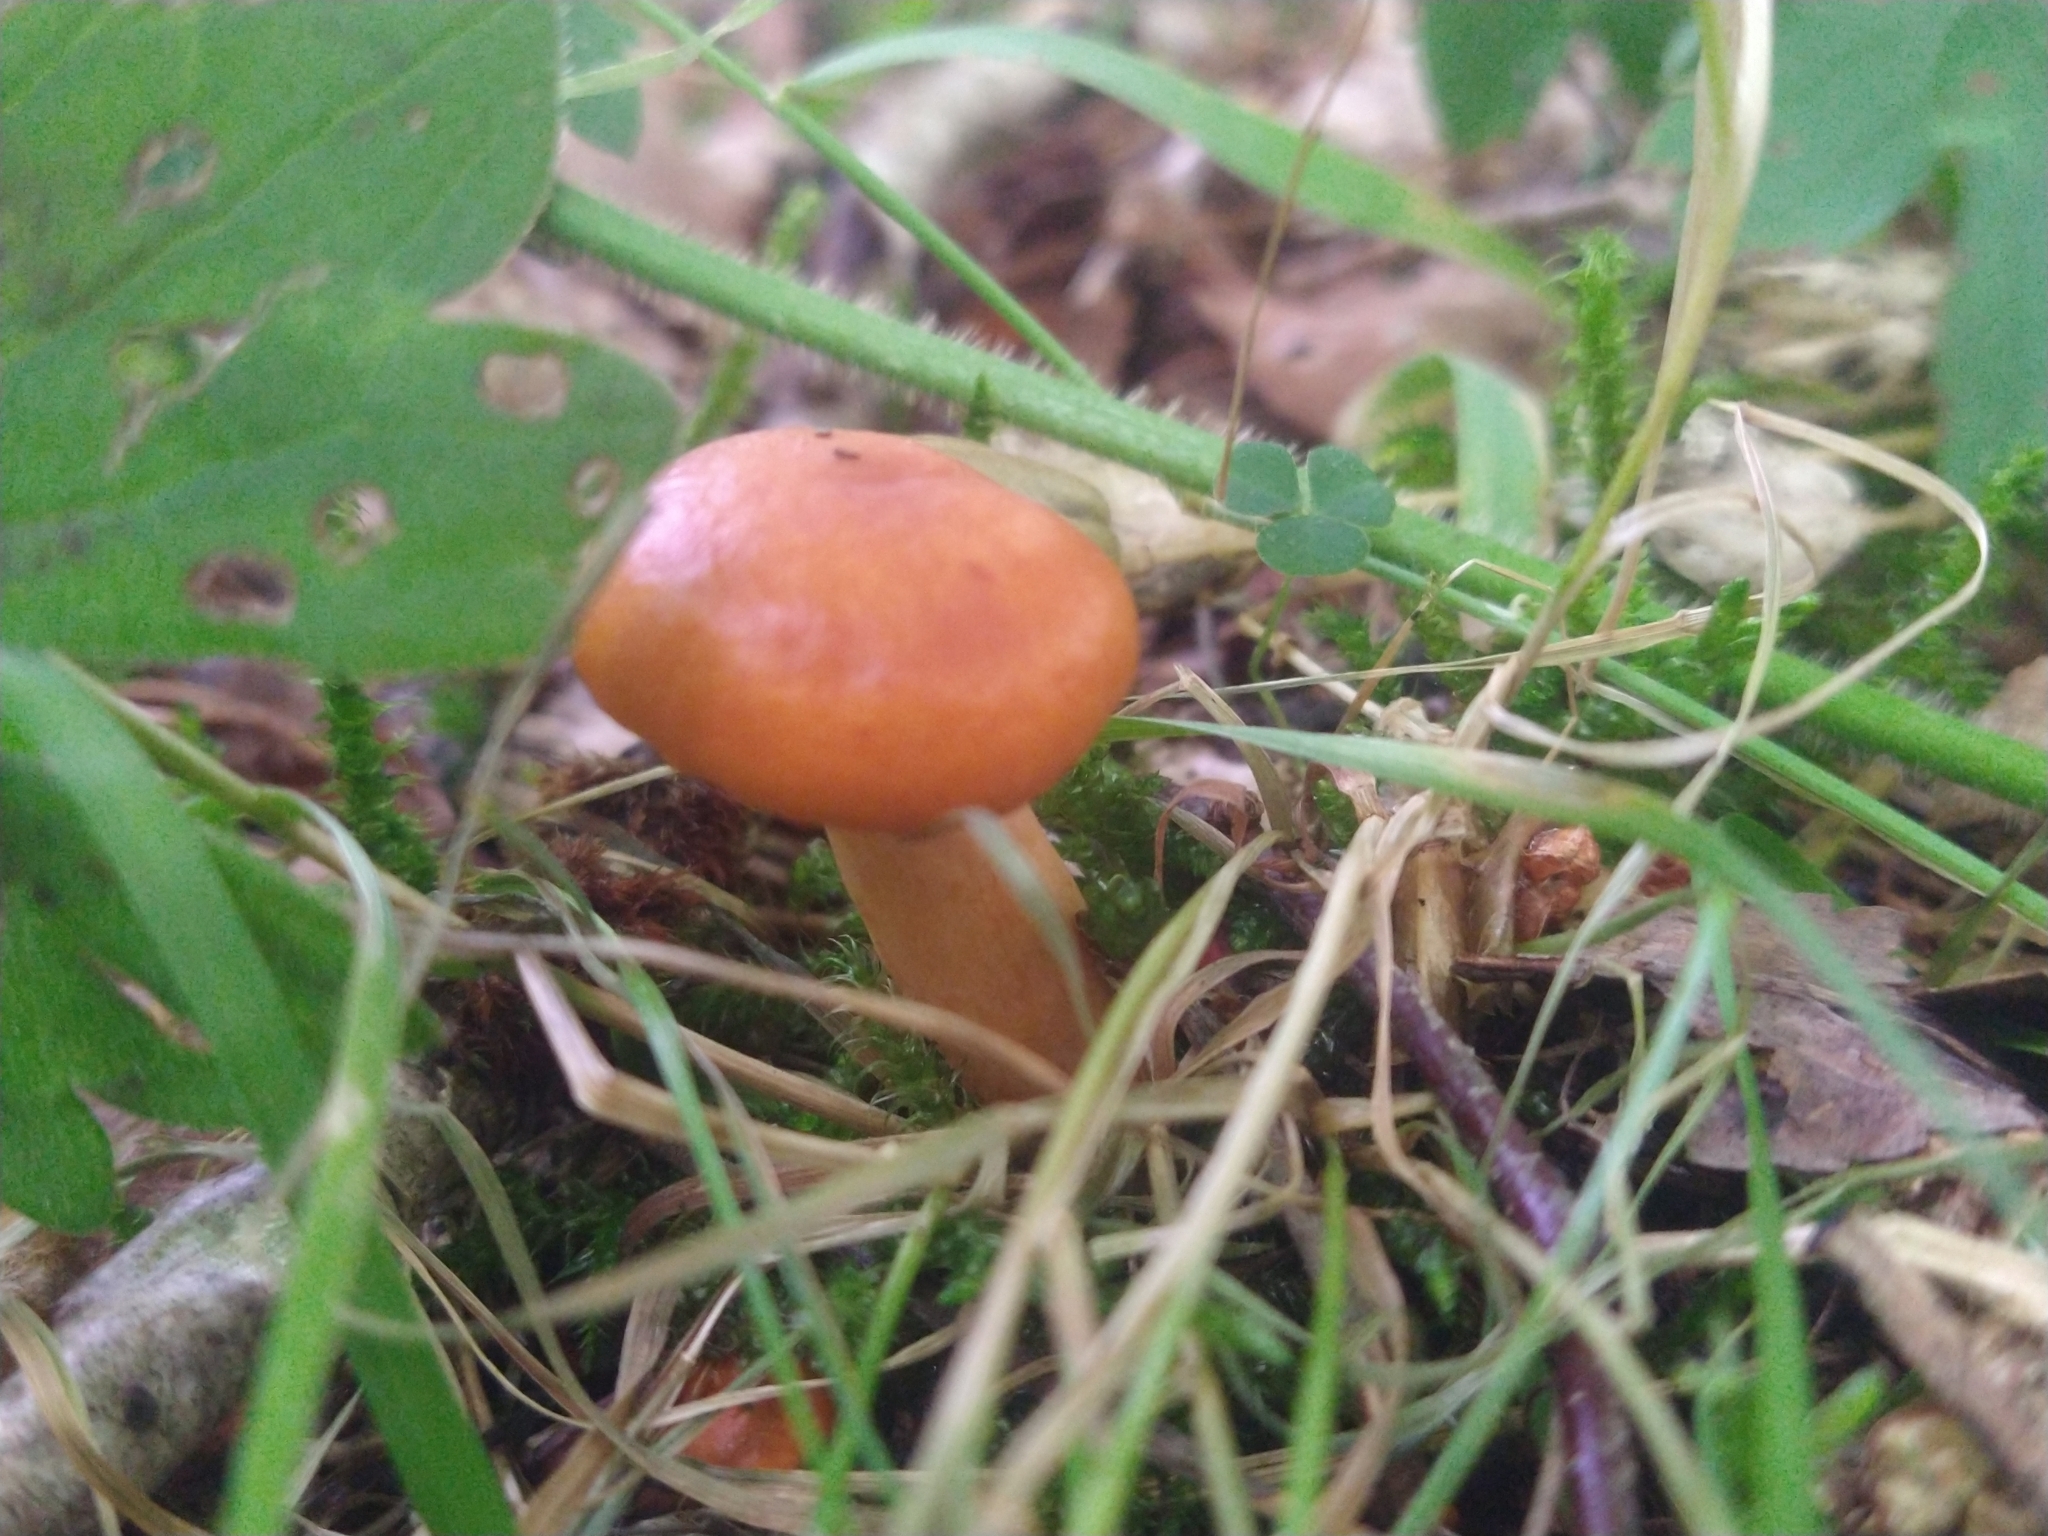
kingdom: Fungi
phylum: Basidiomycota
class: Agaricomycetes
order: Russulales
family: Russulaceae
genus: Lactarius
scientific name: Lactarius aurantiacus
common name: Orange milkcap
